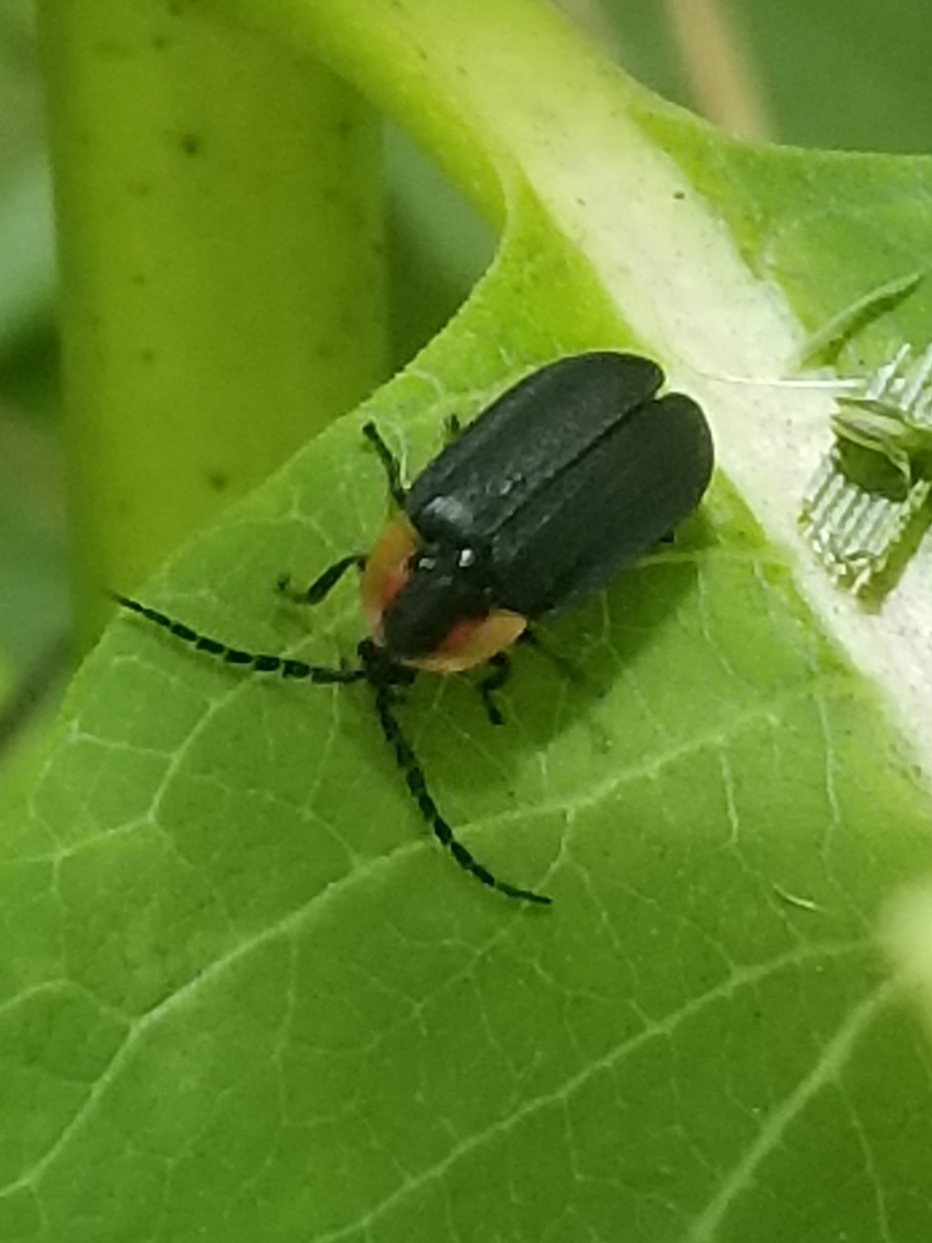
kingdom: Animalia
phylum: Arthropoda
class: Insecta
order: Coleoptera
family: Lampyridae
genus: Lucidota
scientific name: Lucidota atra
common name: Black firefly
